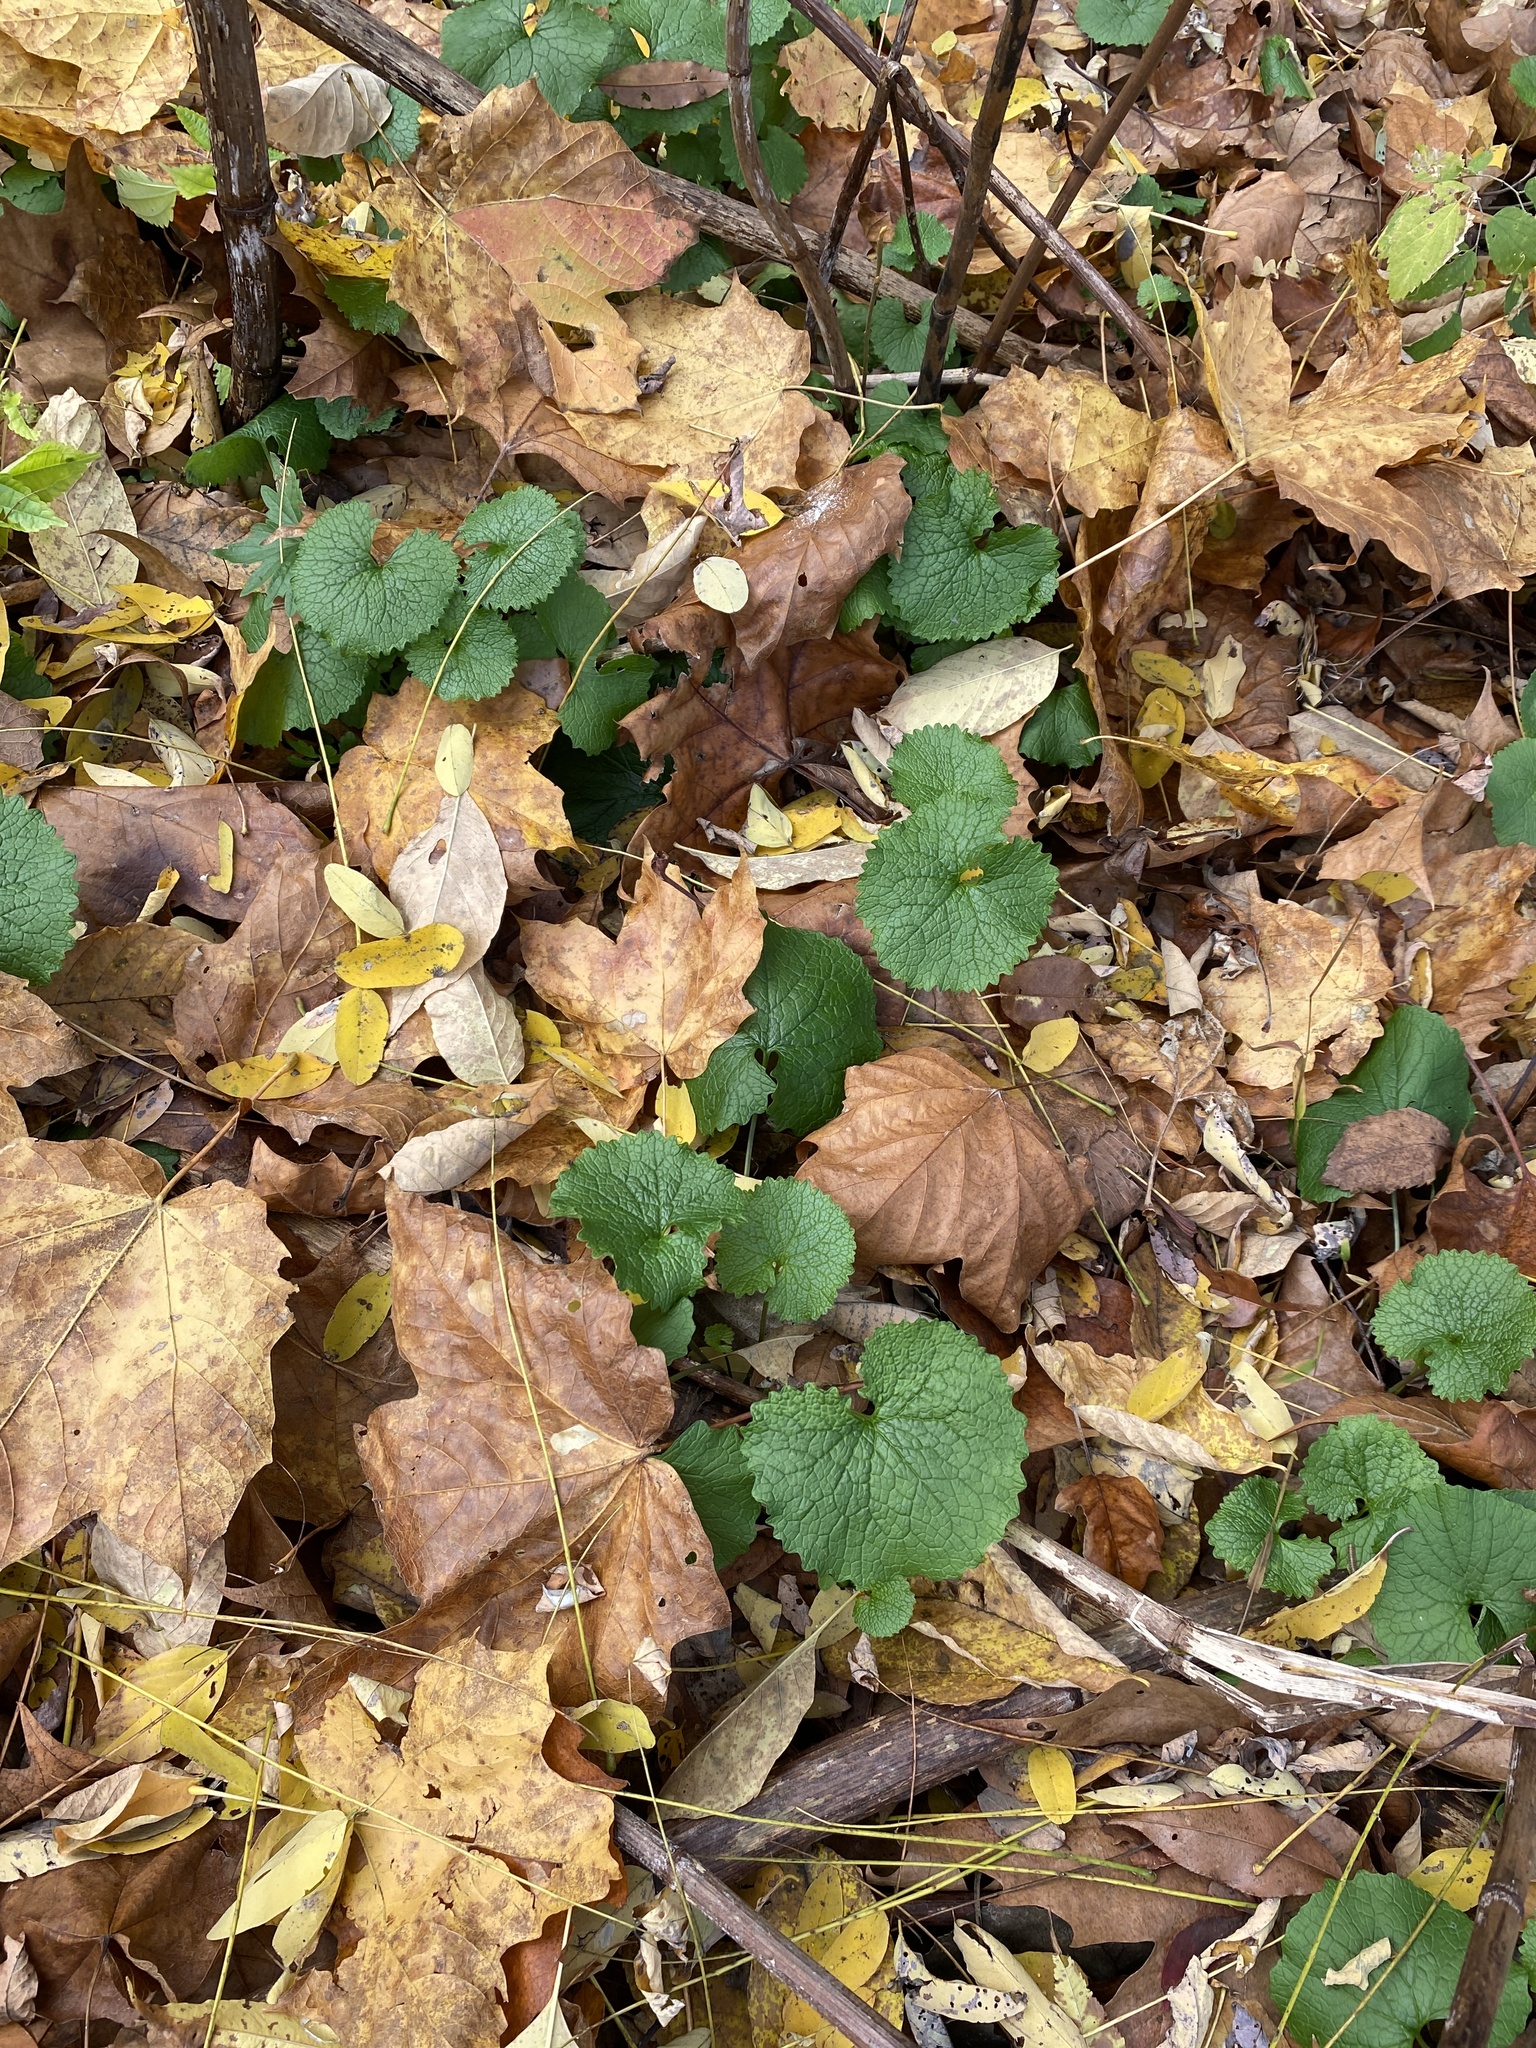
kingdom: Plantae
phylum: Tracheophyta
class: Magnoliopsida
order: Brassicales
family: Brassicaceae
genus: Alliaria
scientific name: Alliaria petiolata
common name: Garlic mustard
